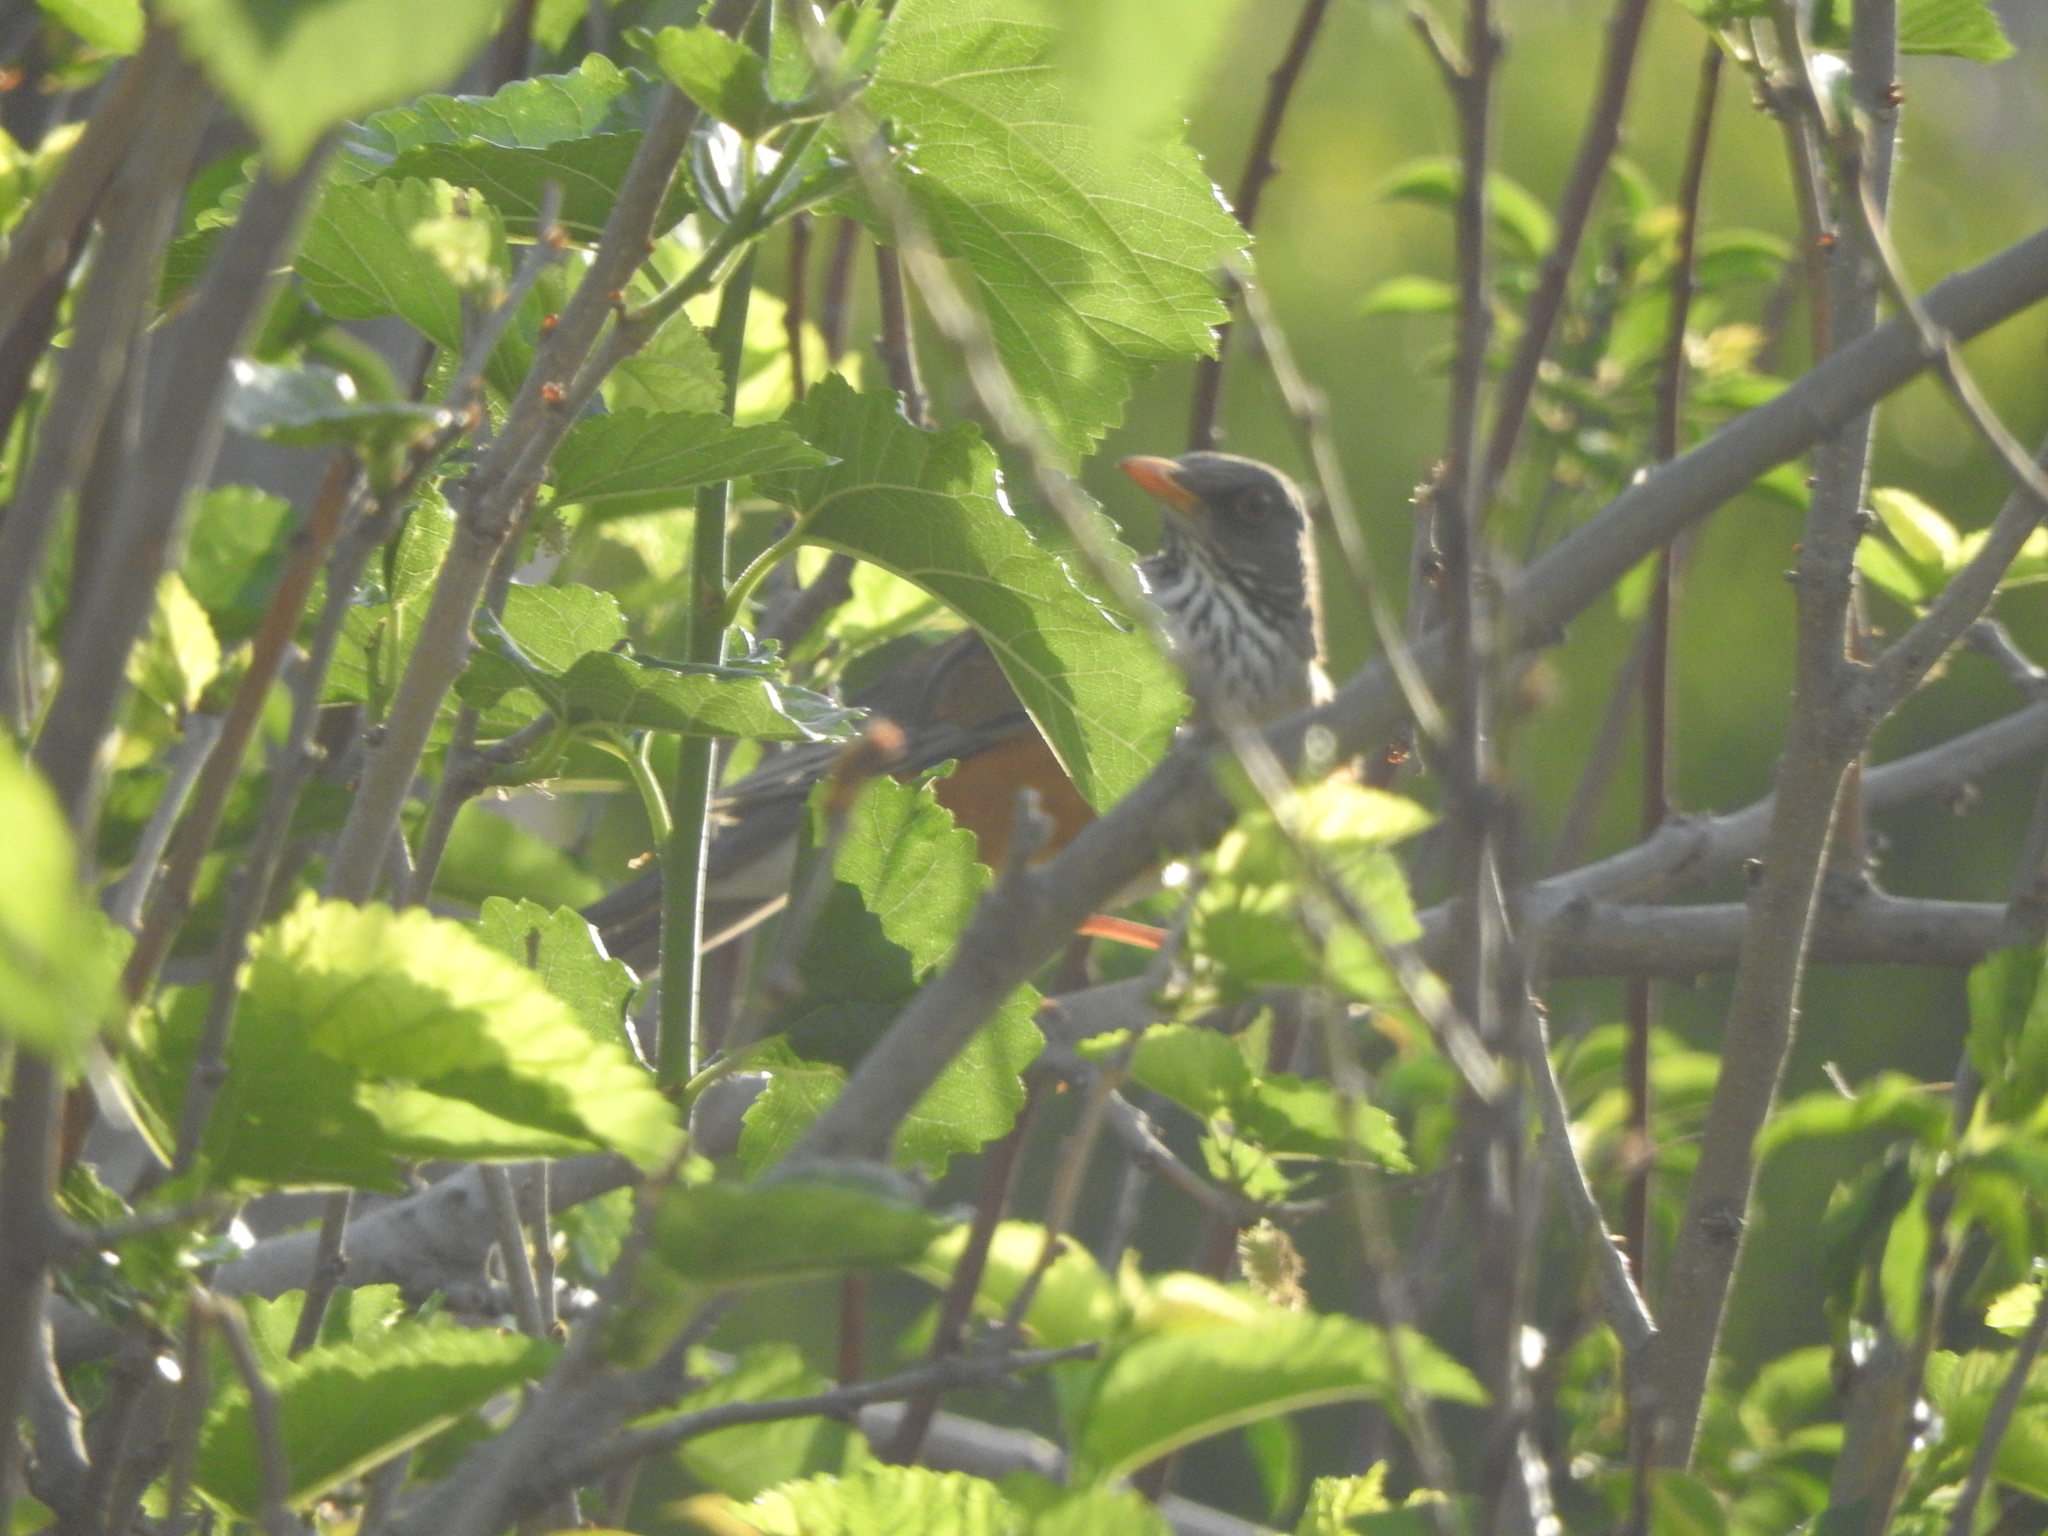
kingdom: Animalia
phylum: Chordata
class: Aves
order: Passeriformes
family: Turdidae
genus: Turdus
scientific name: Turdus rufopalliatus
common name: Rufous-backed robin
